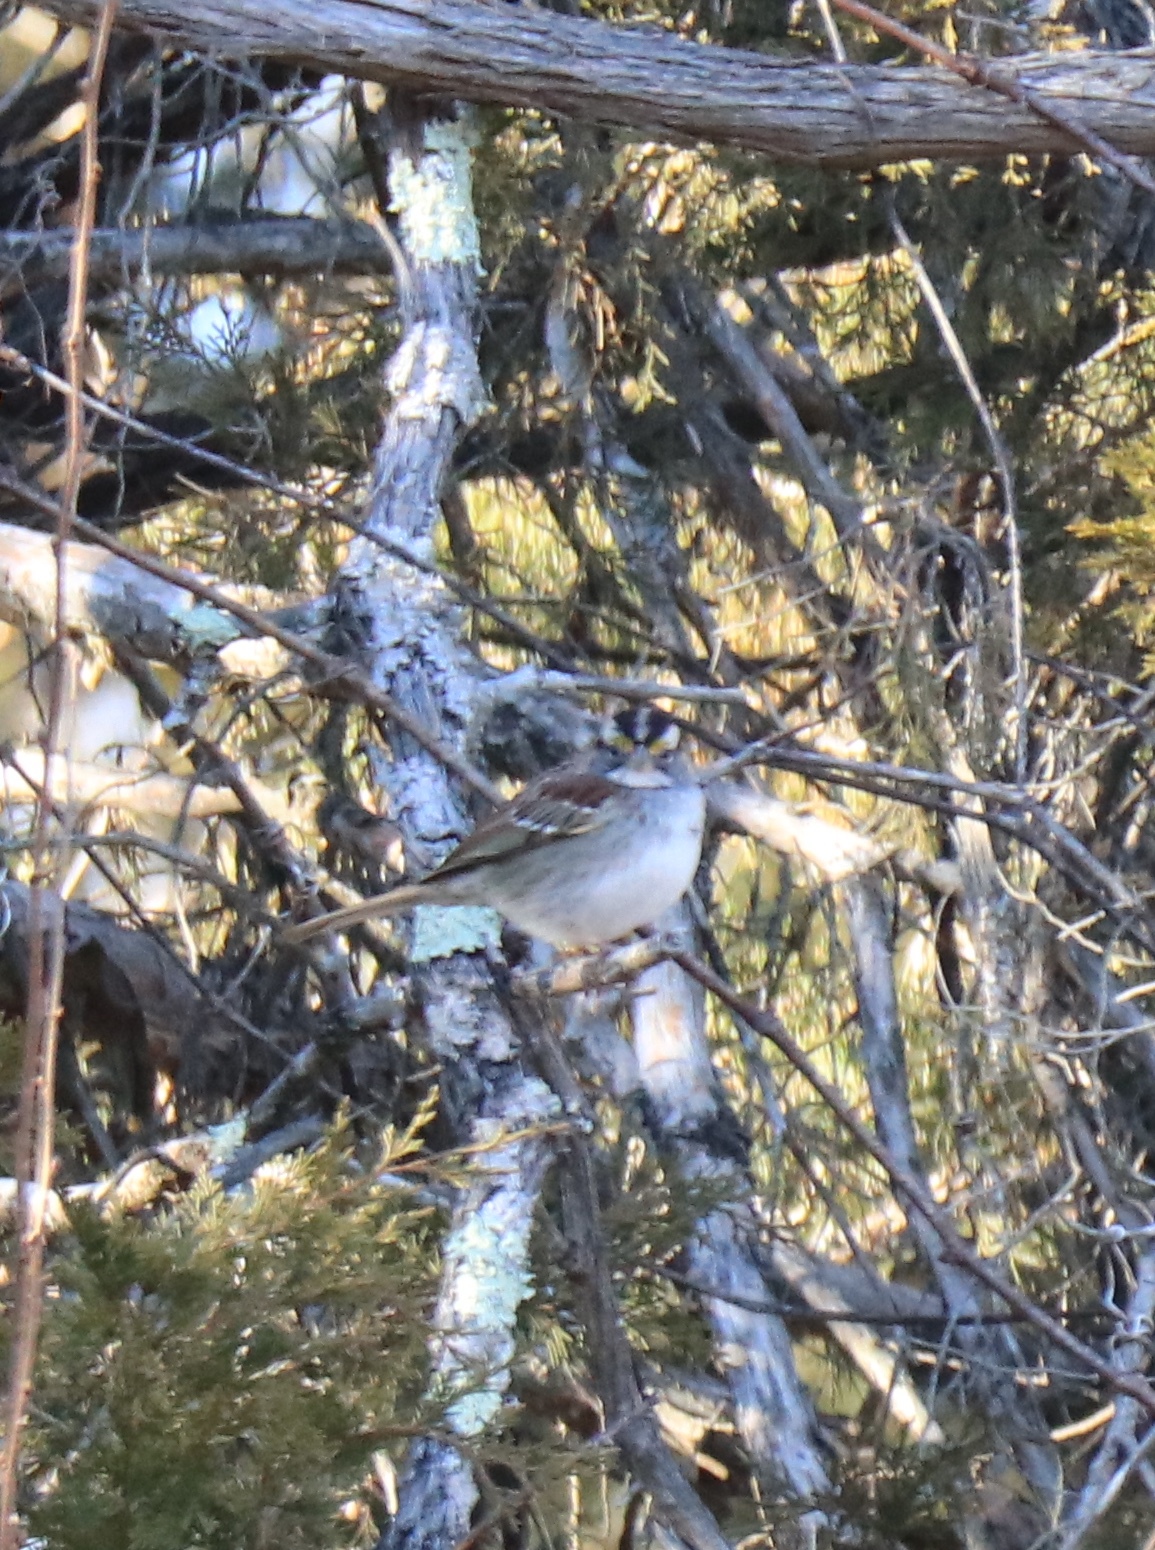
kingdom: Animalia
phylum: Chordata
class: Aves
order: Passeriformes
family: Passerellidae
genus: Zonotrichia
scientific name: Zonotrichia albicollis
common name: White-throated sparrow
